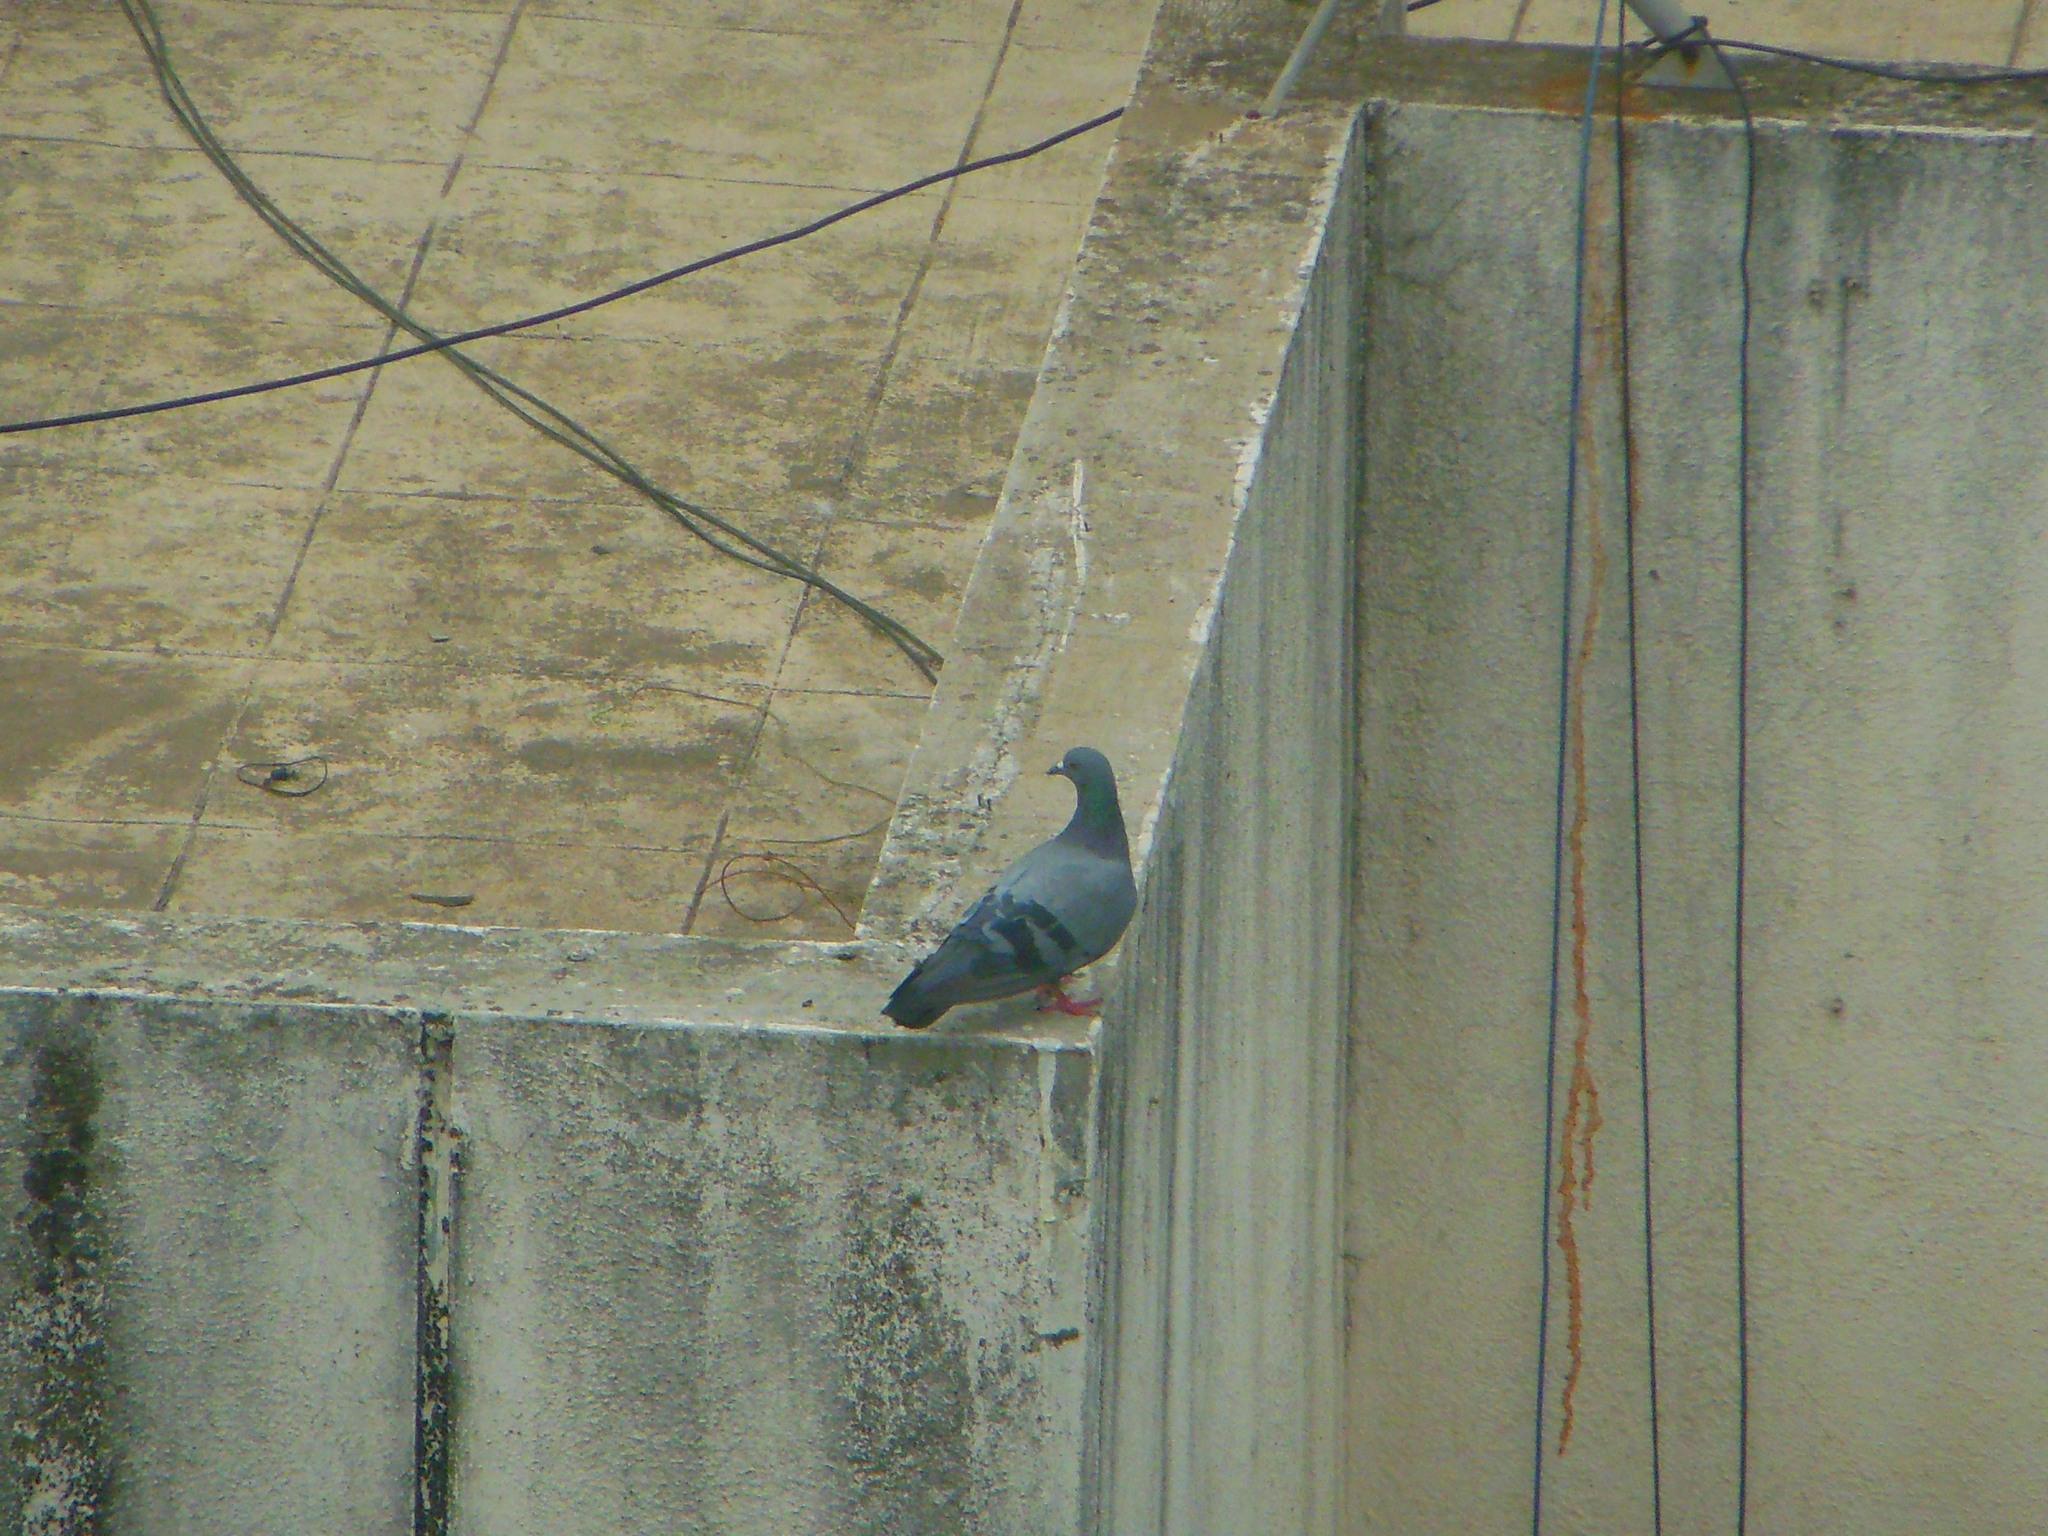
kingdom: Animalia
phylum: Chordata
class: Aves
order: Columbiformes
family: Columbidae
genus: Columba
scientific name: Columba livia
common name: Rock pigeon
